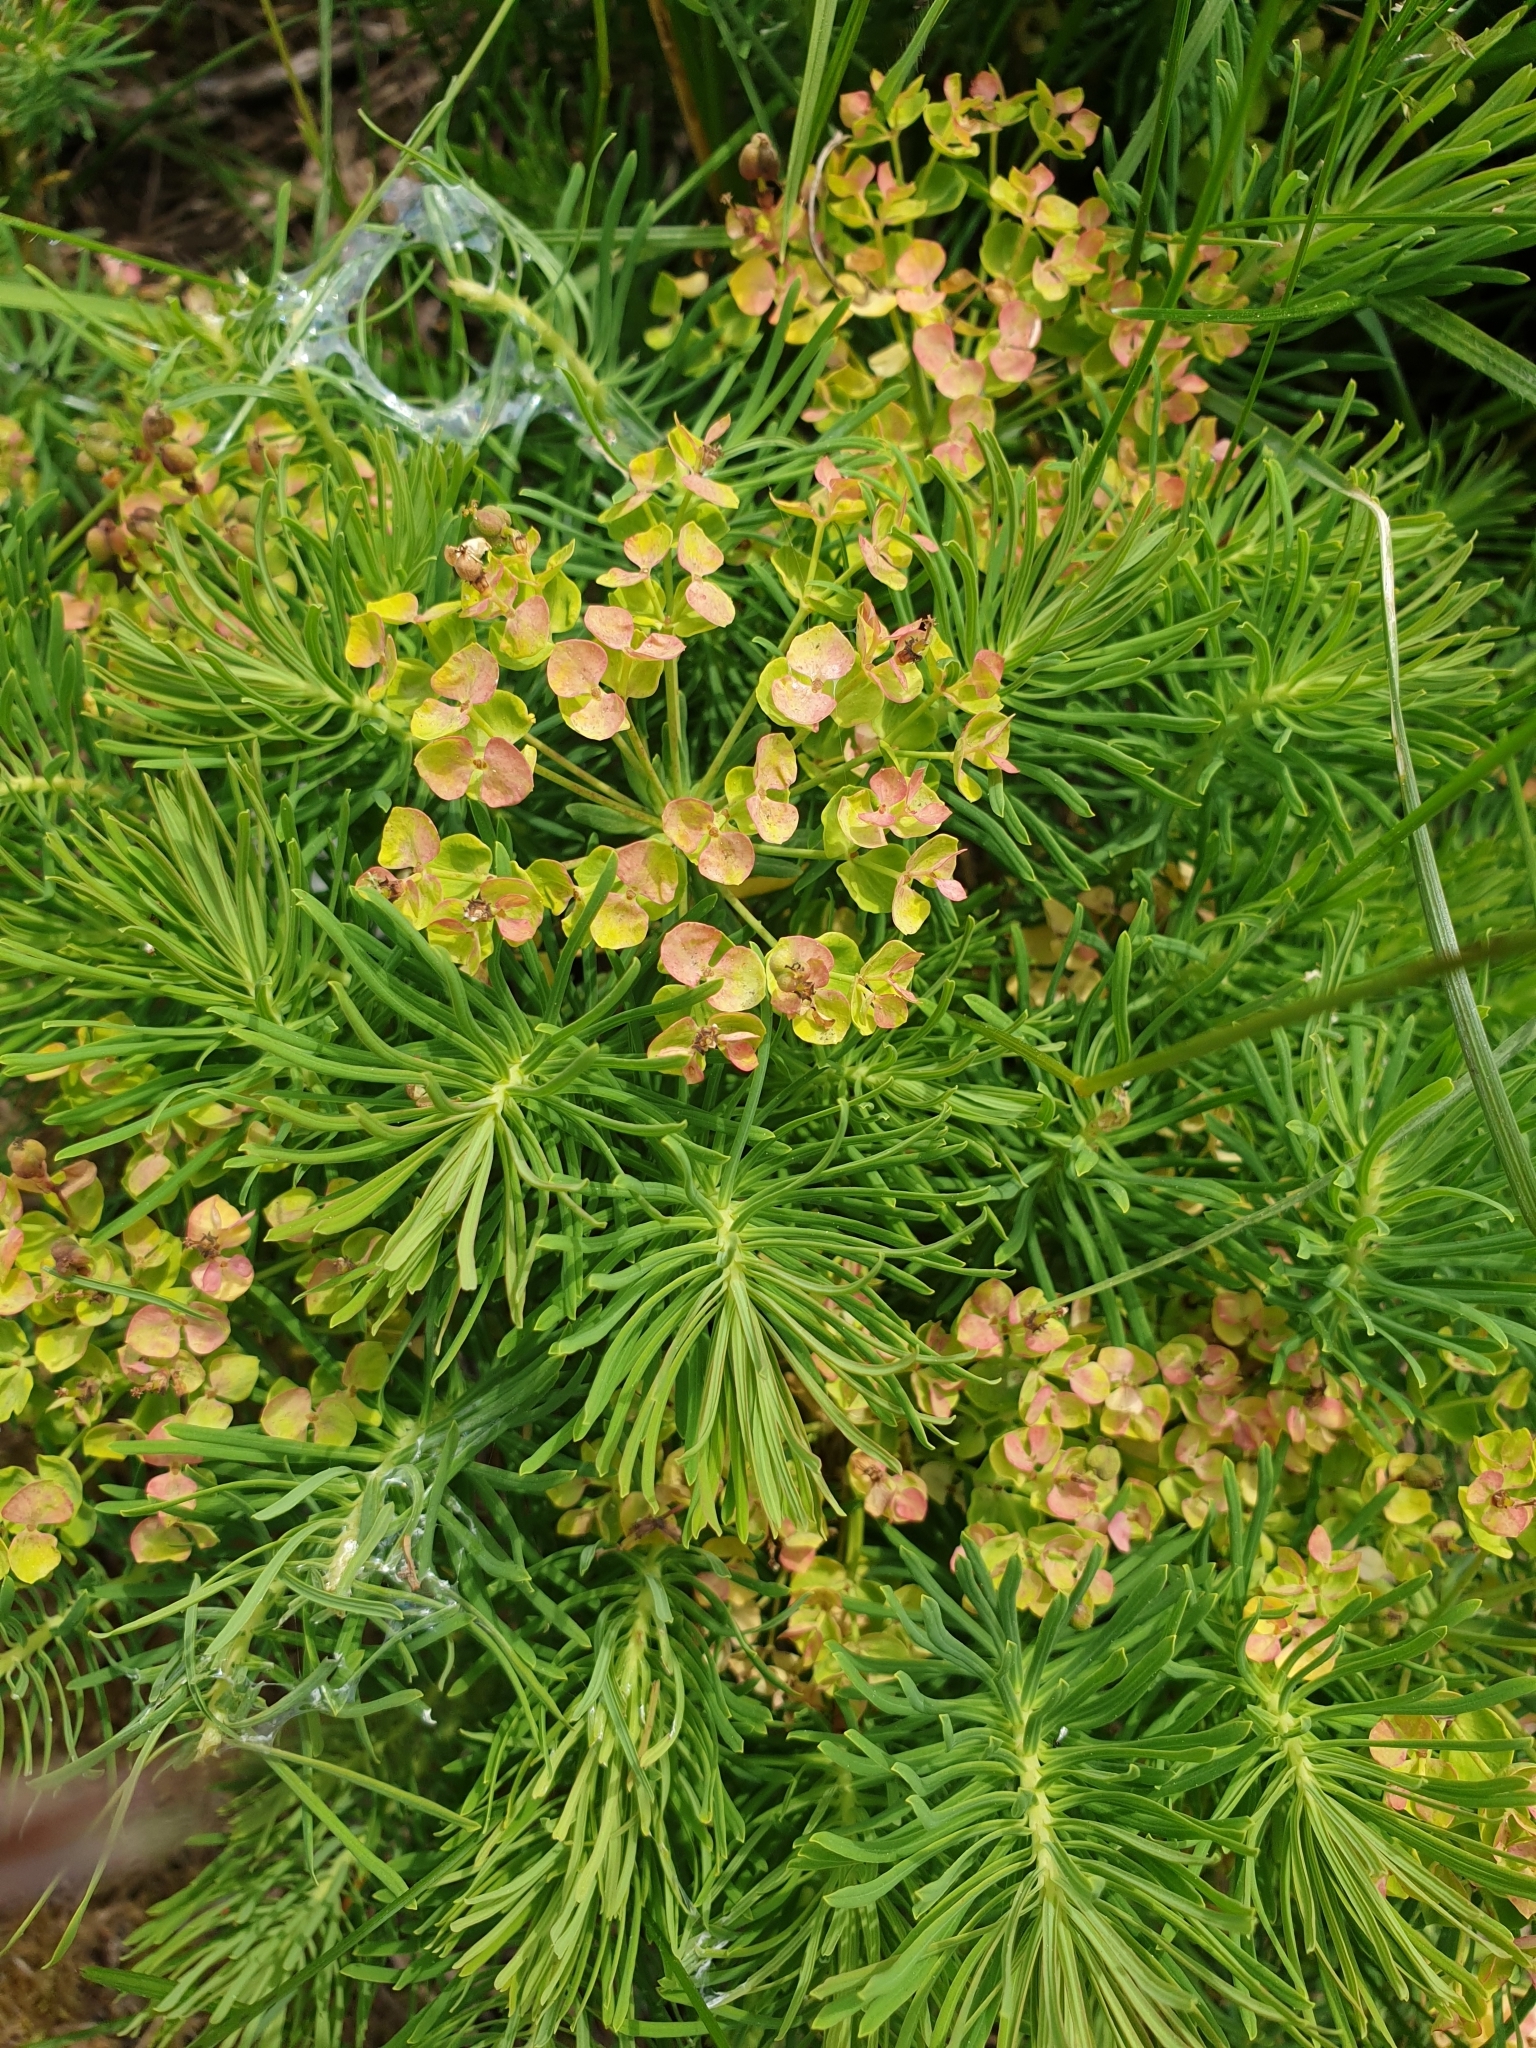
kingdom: Plantae
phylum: Tracheophyta
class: Magnoliopsida
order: Malpighiales
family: Euphorbiaceae
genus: Euphorbia
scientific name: Euphorbia cyparissias
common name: Cypress spurge
